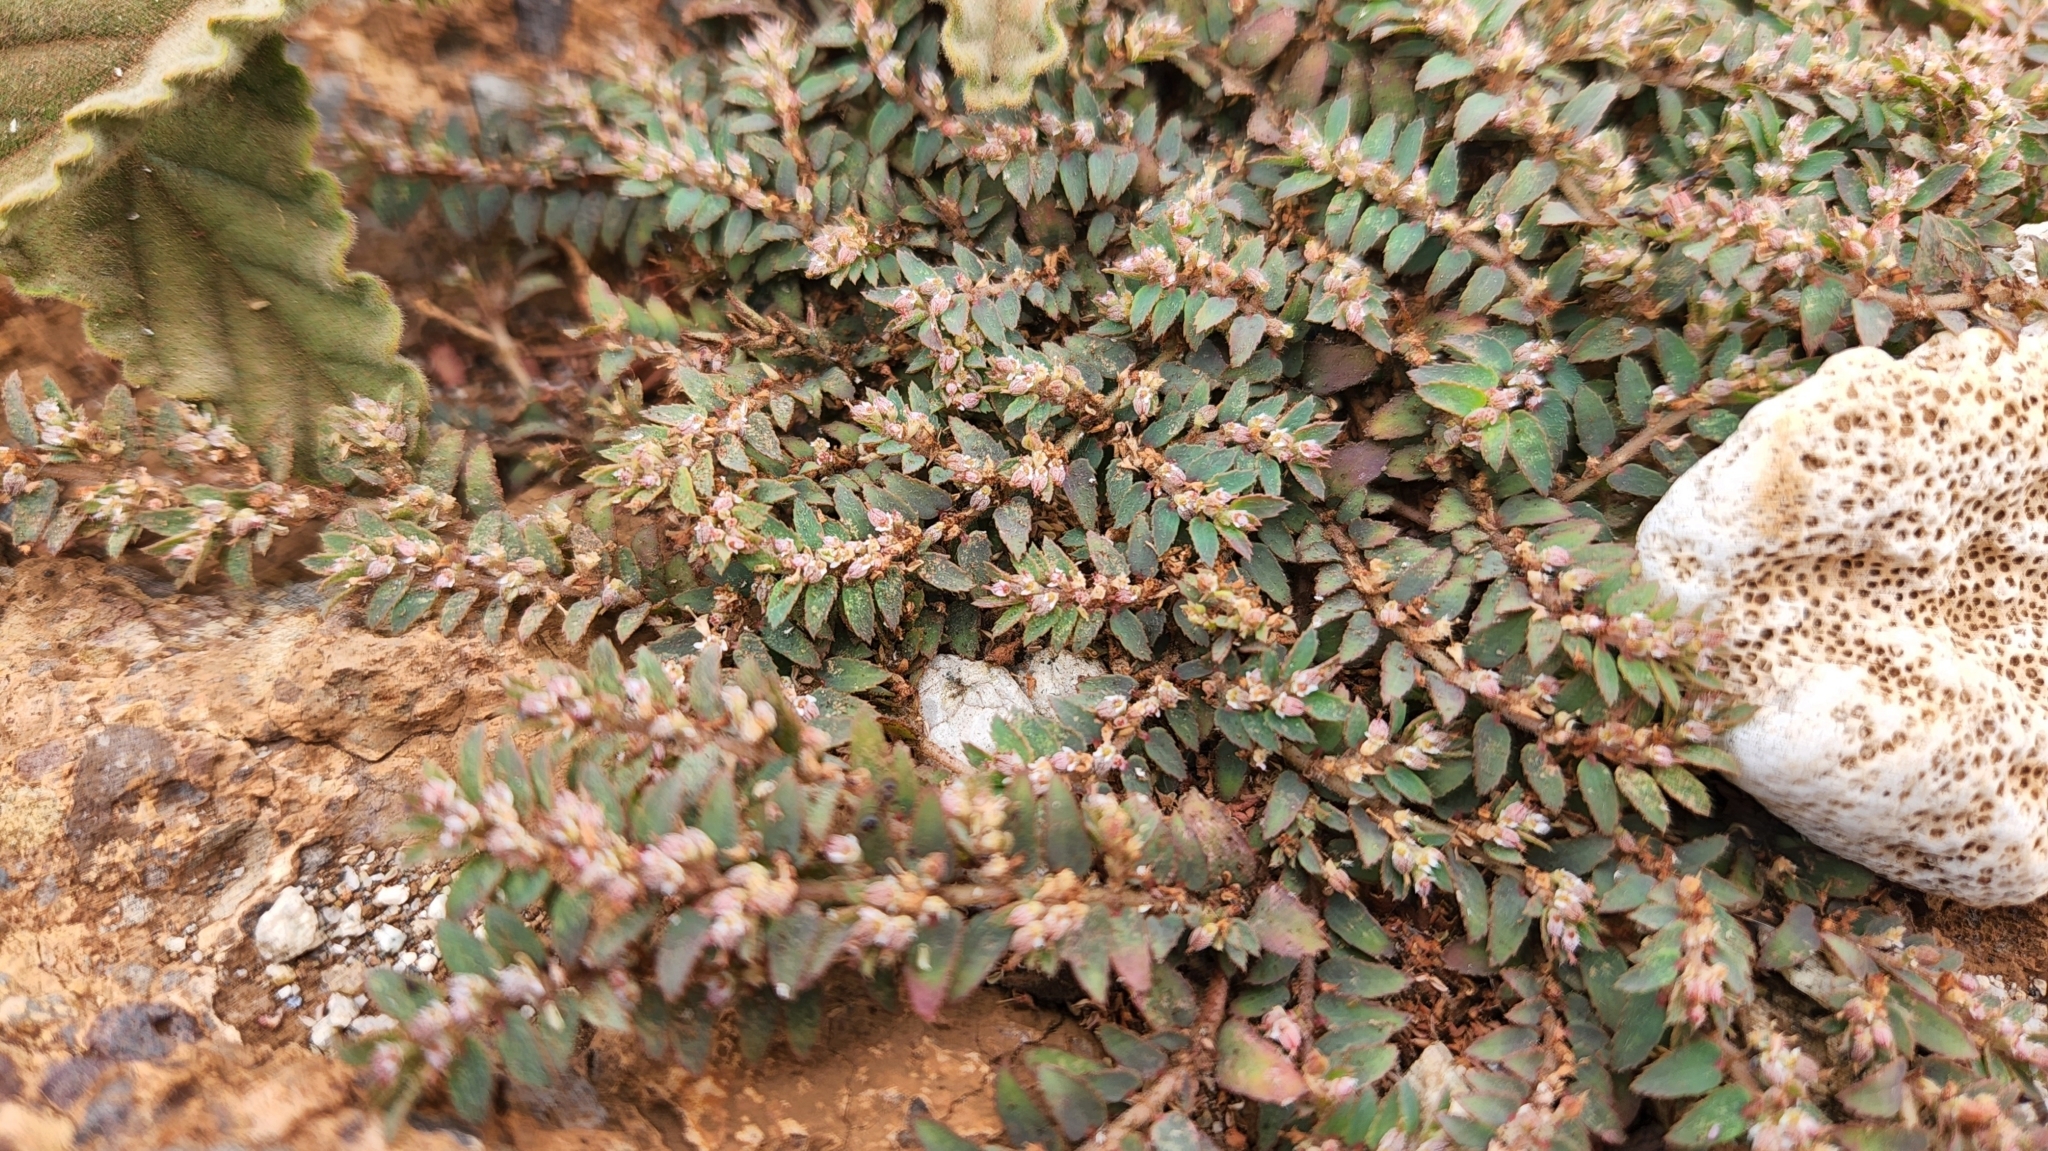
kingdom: Plantae
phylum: Tracheophyta
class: Magnoliopsida
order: Malpighiales
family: Euphorbiaceae
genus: Euphorbia
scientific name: Euphorbia dioeca
